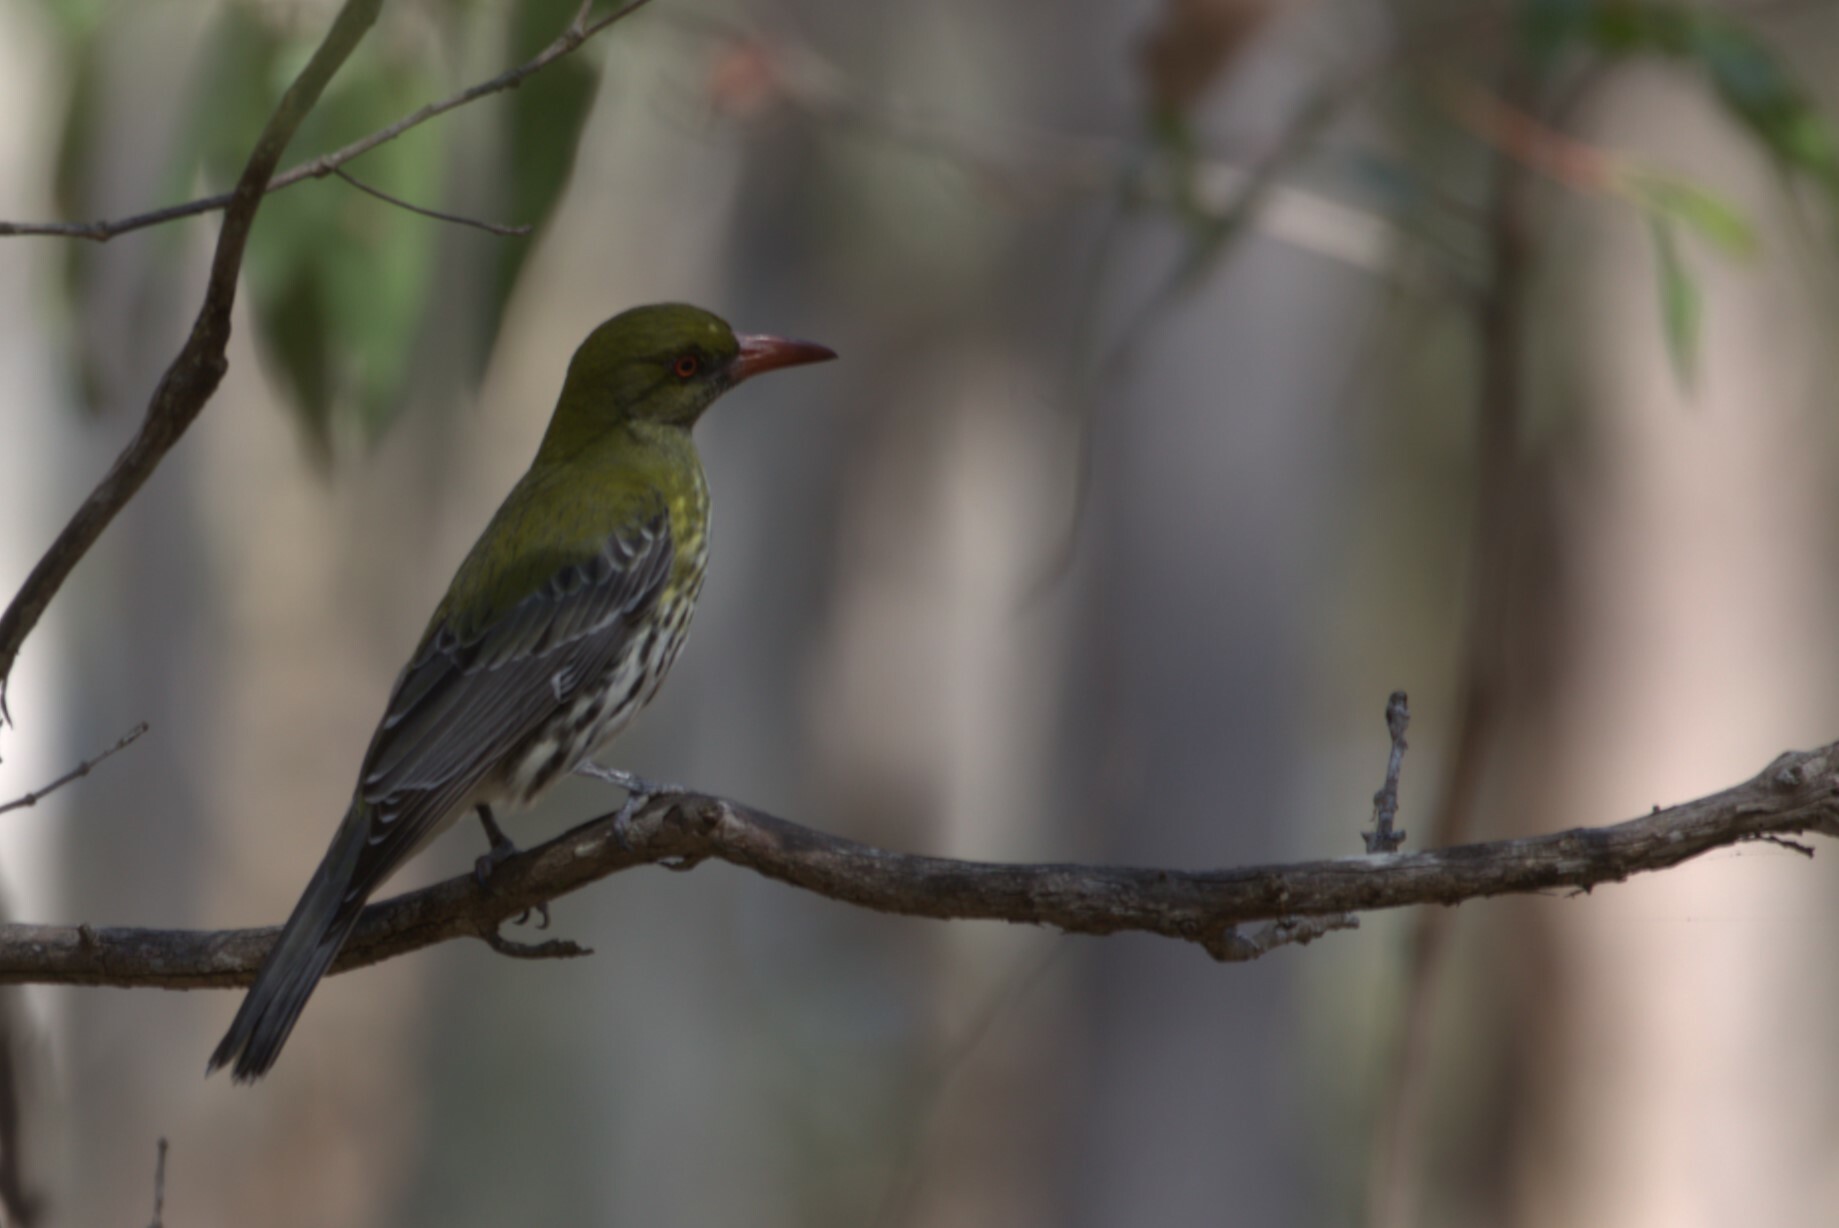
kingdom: Animalia
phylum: Chordata
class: Aves
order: Passeriformes
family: Oriolidae
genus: Oriolus
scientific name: Oriolus sagittatus
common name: Olive-backed oriole
